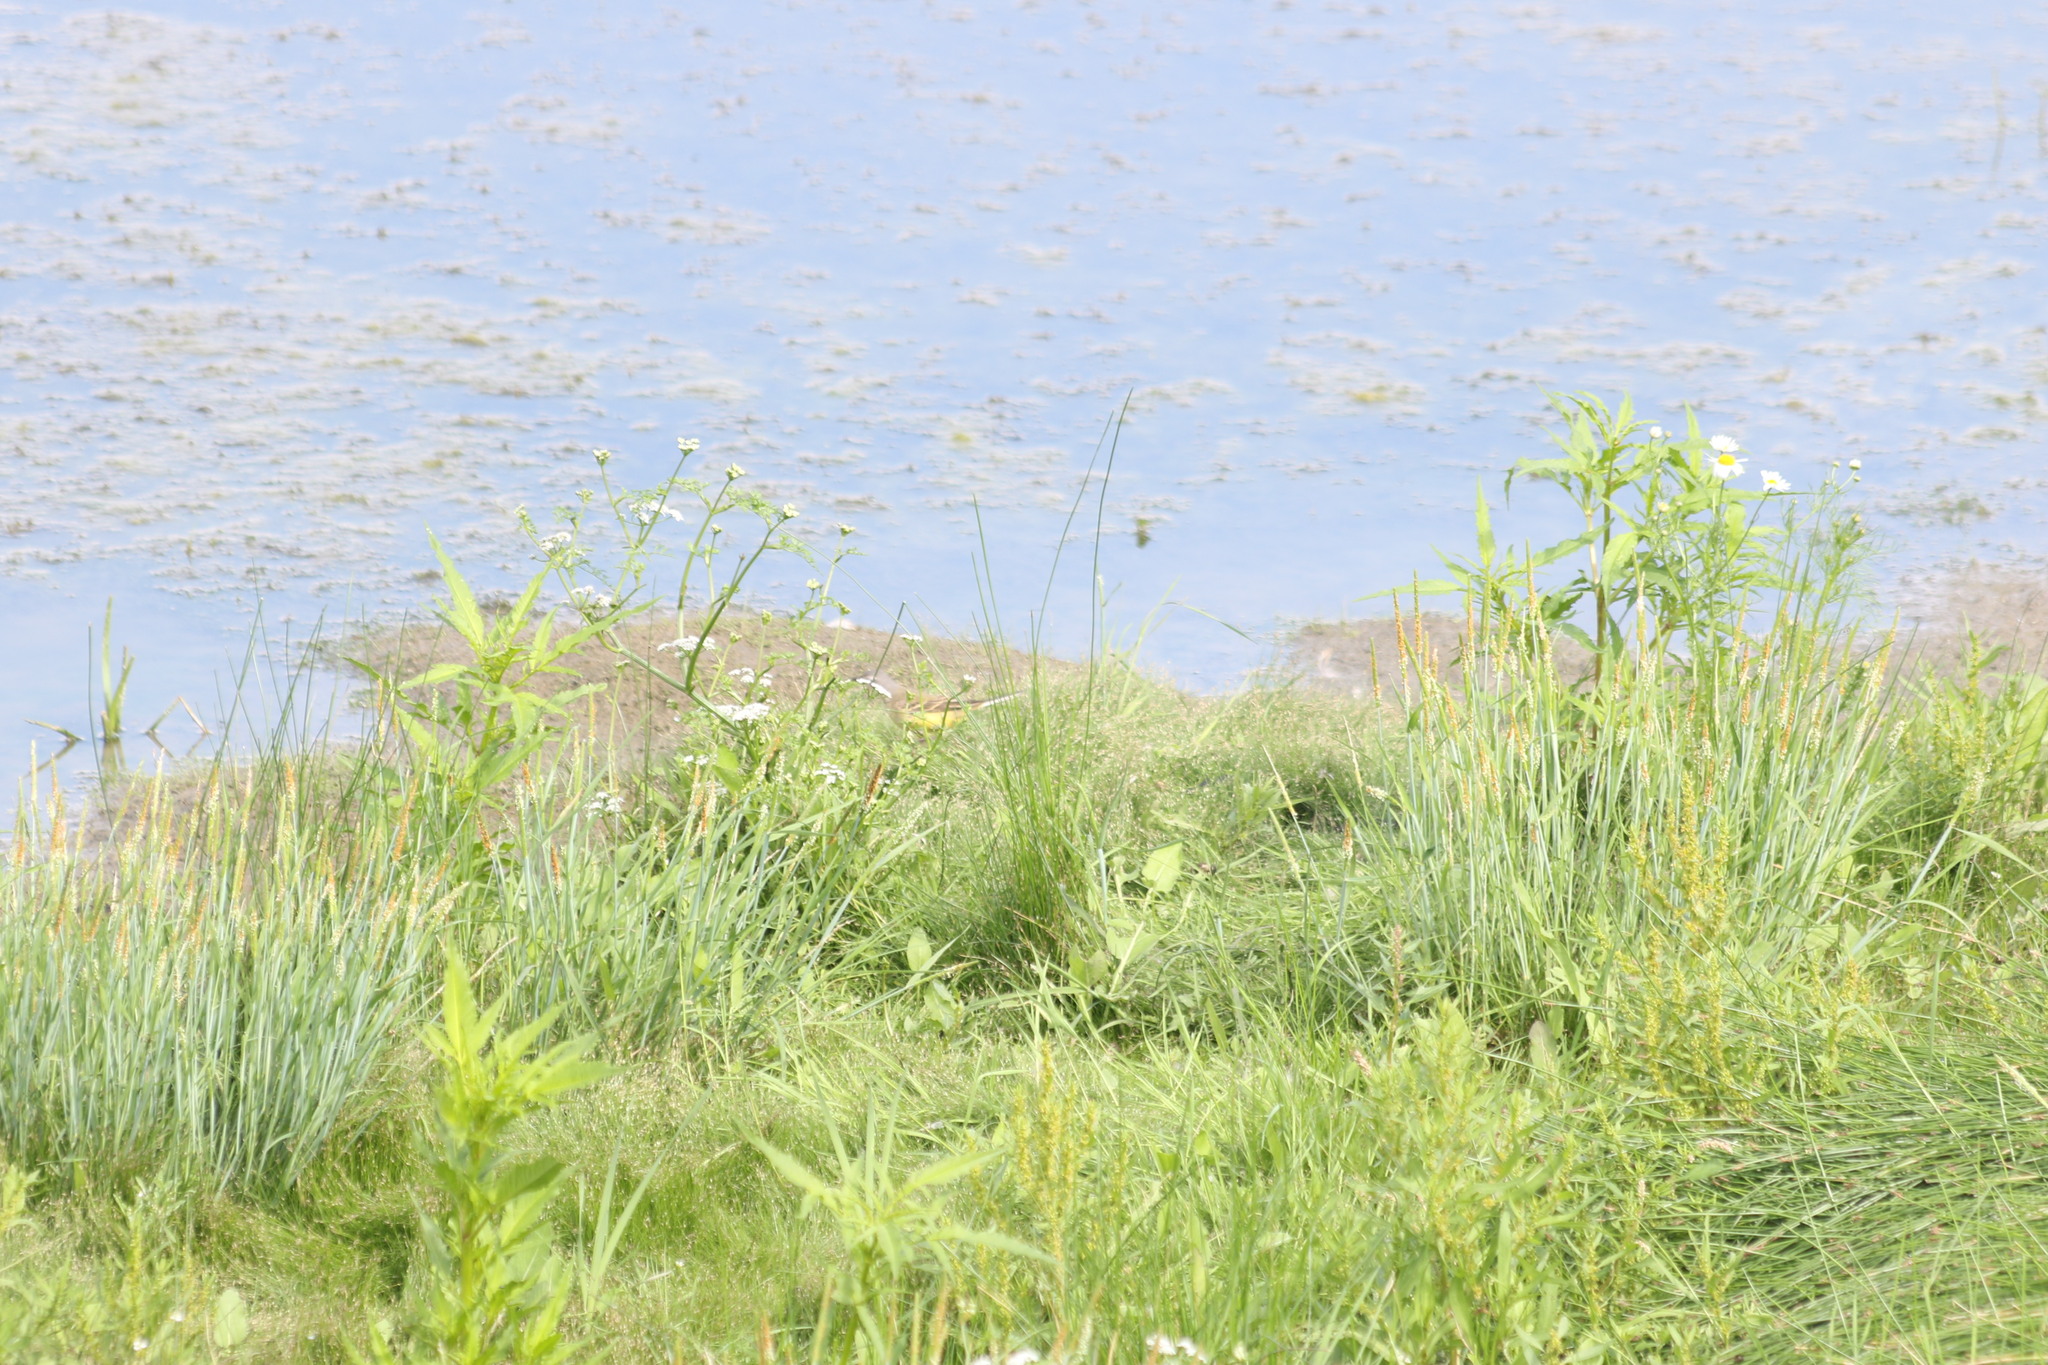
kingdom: Animalia
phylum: Chordata
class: Aves
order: Passeriformes
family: Motacillidae
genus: Motacilla
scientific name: Motacilla flava
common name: Western yellow wagtail
